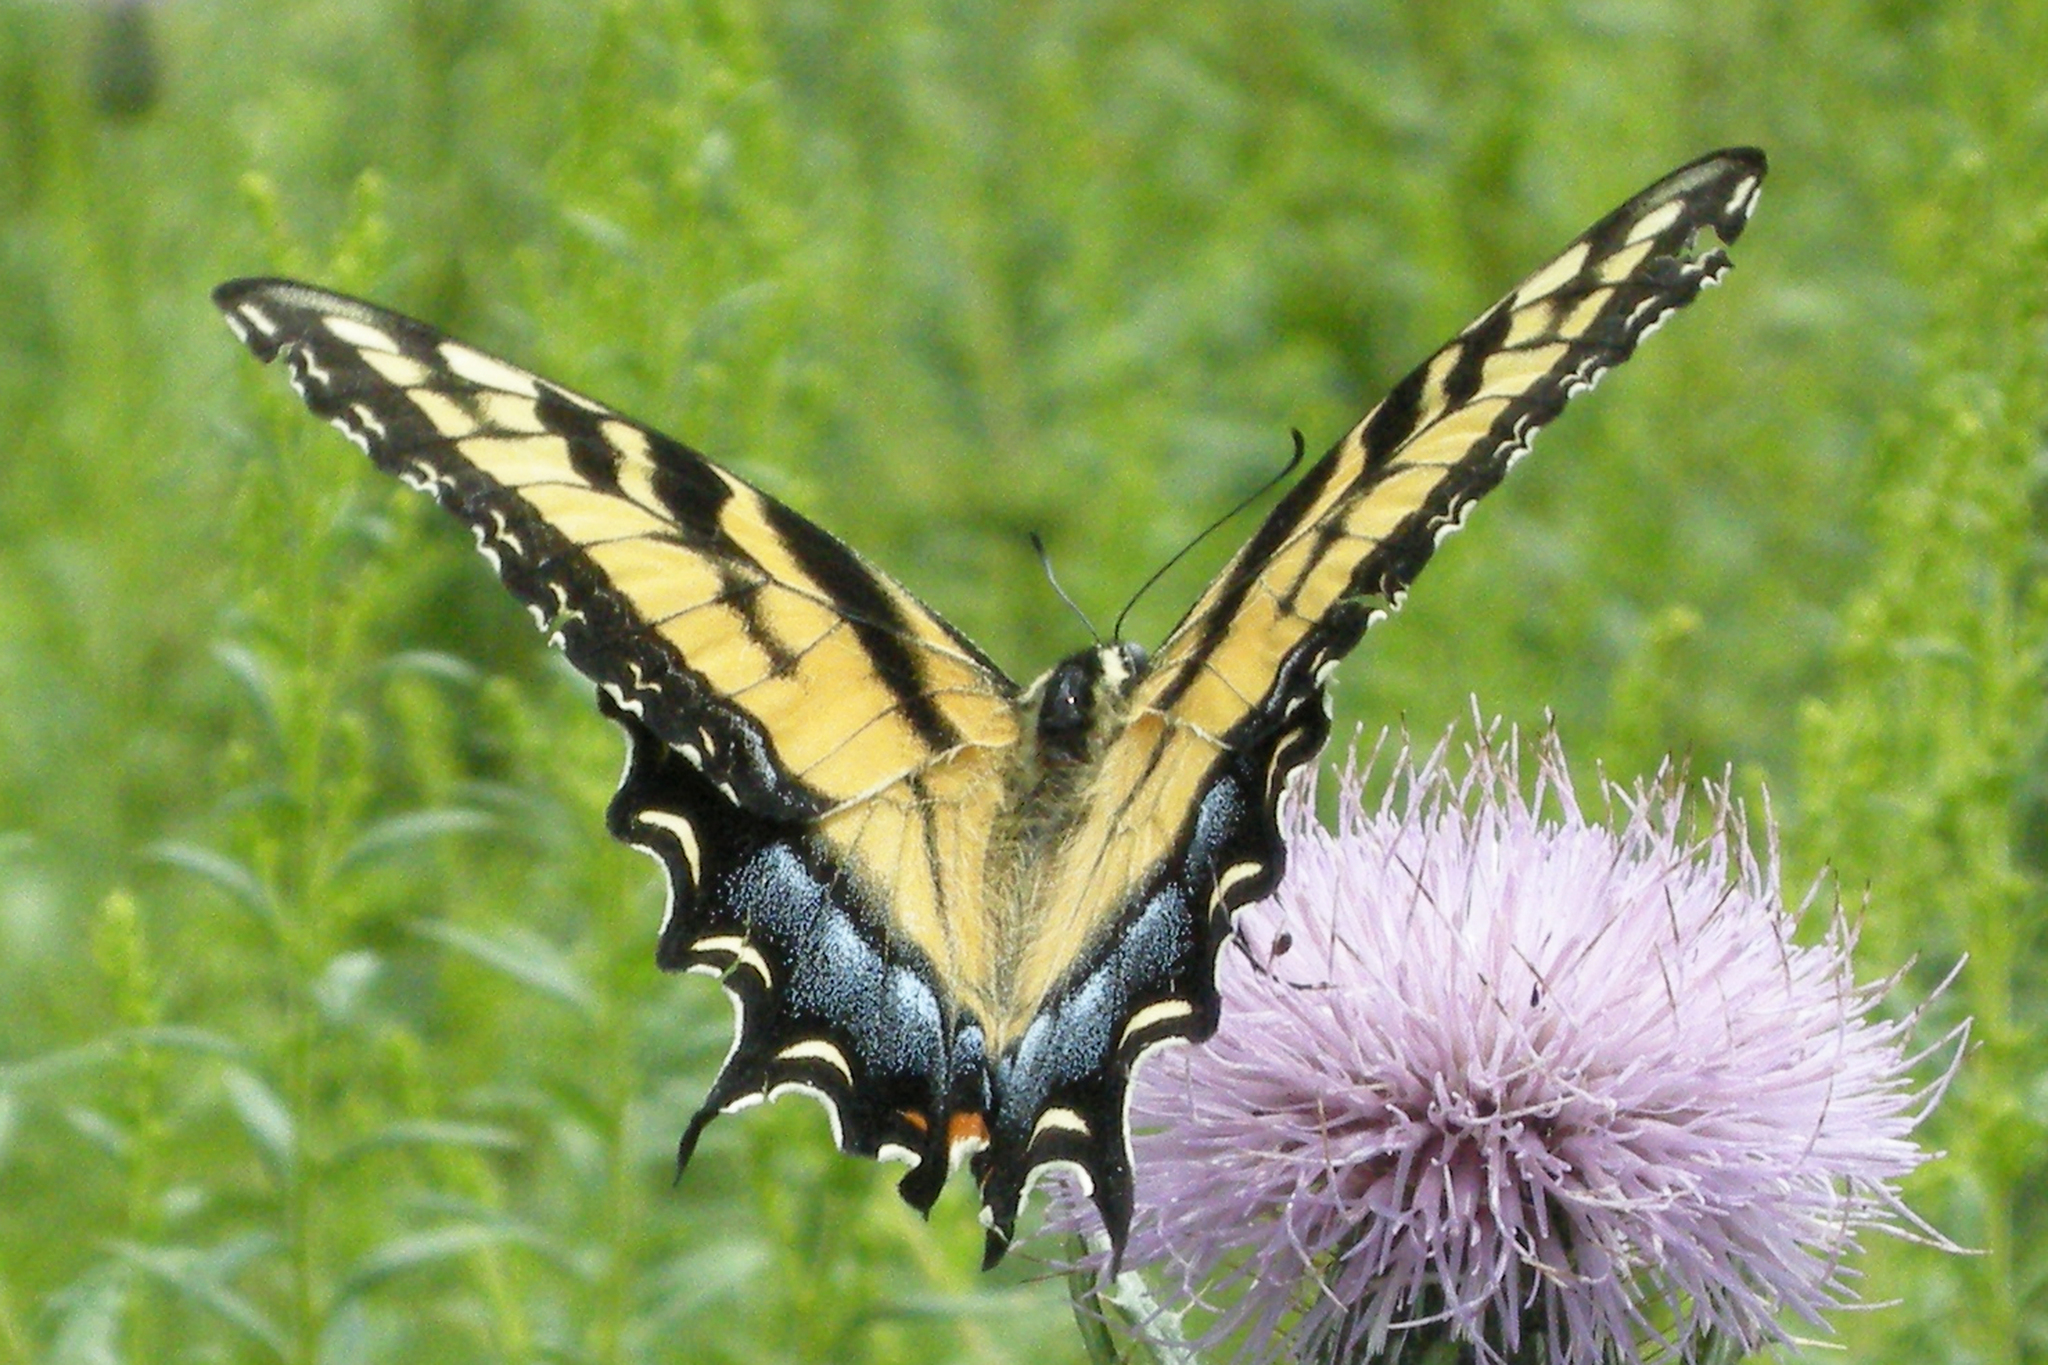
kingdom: Animalia
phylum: Arthropoda
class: Insecta
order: Lepidoptera
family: Papilionidae
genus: Papilio
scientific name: Papilio glaucus
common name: Tiger swallowtail
